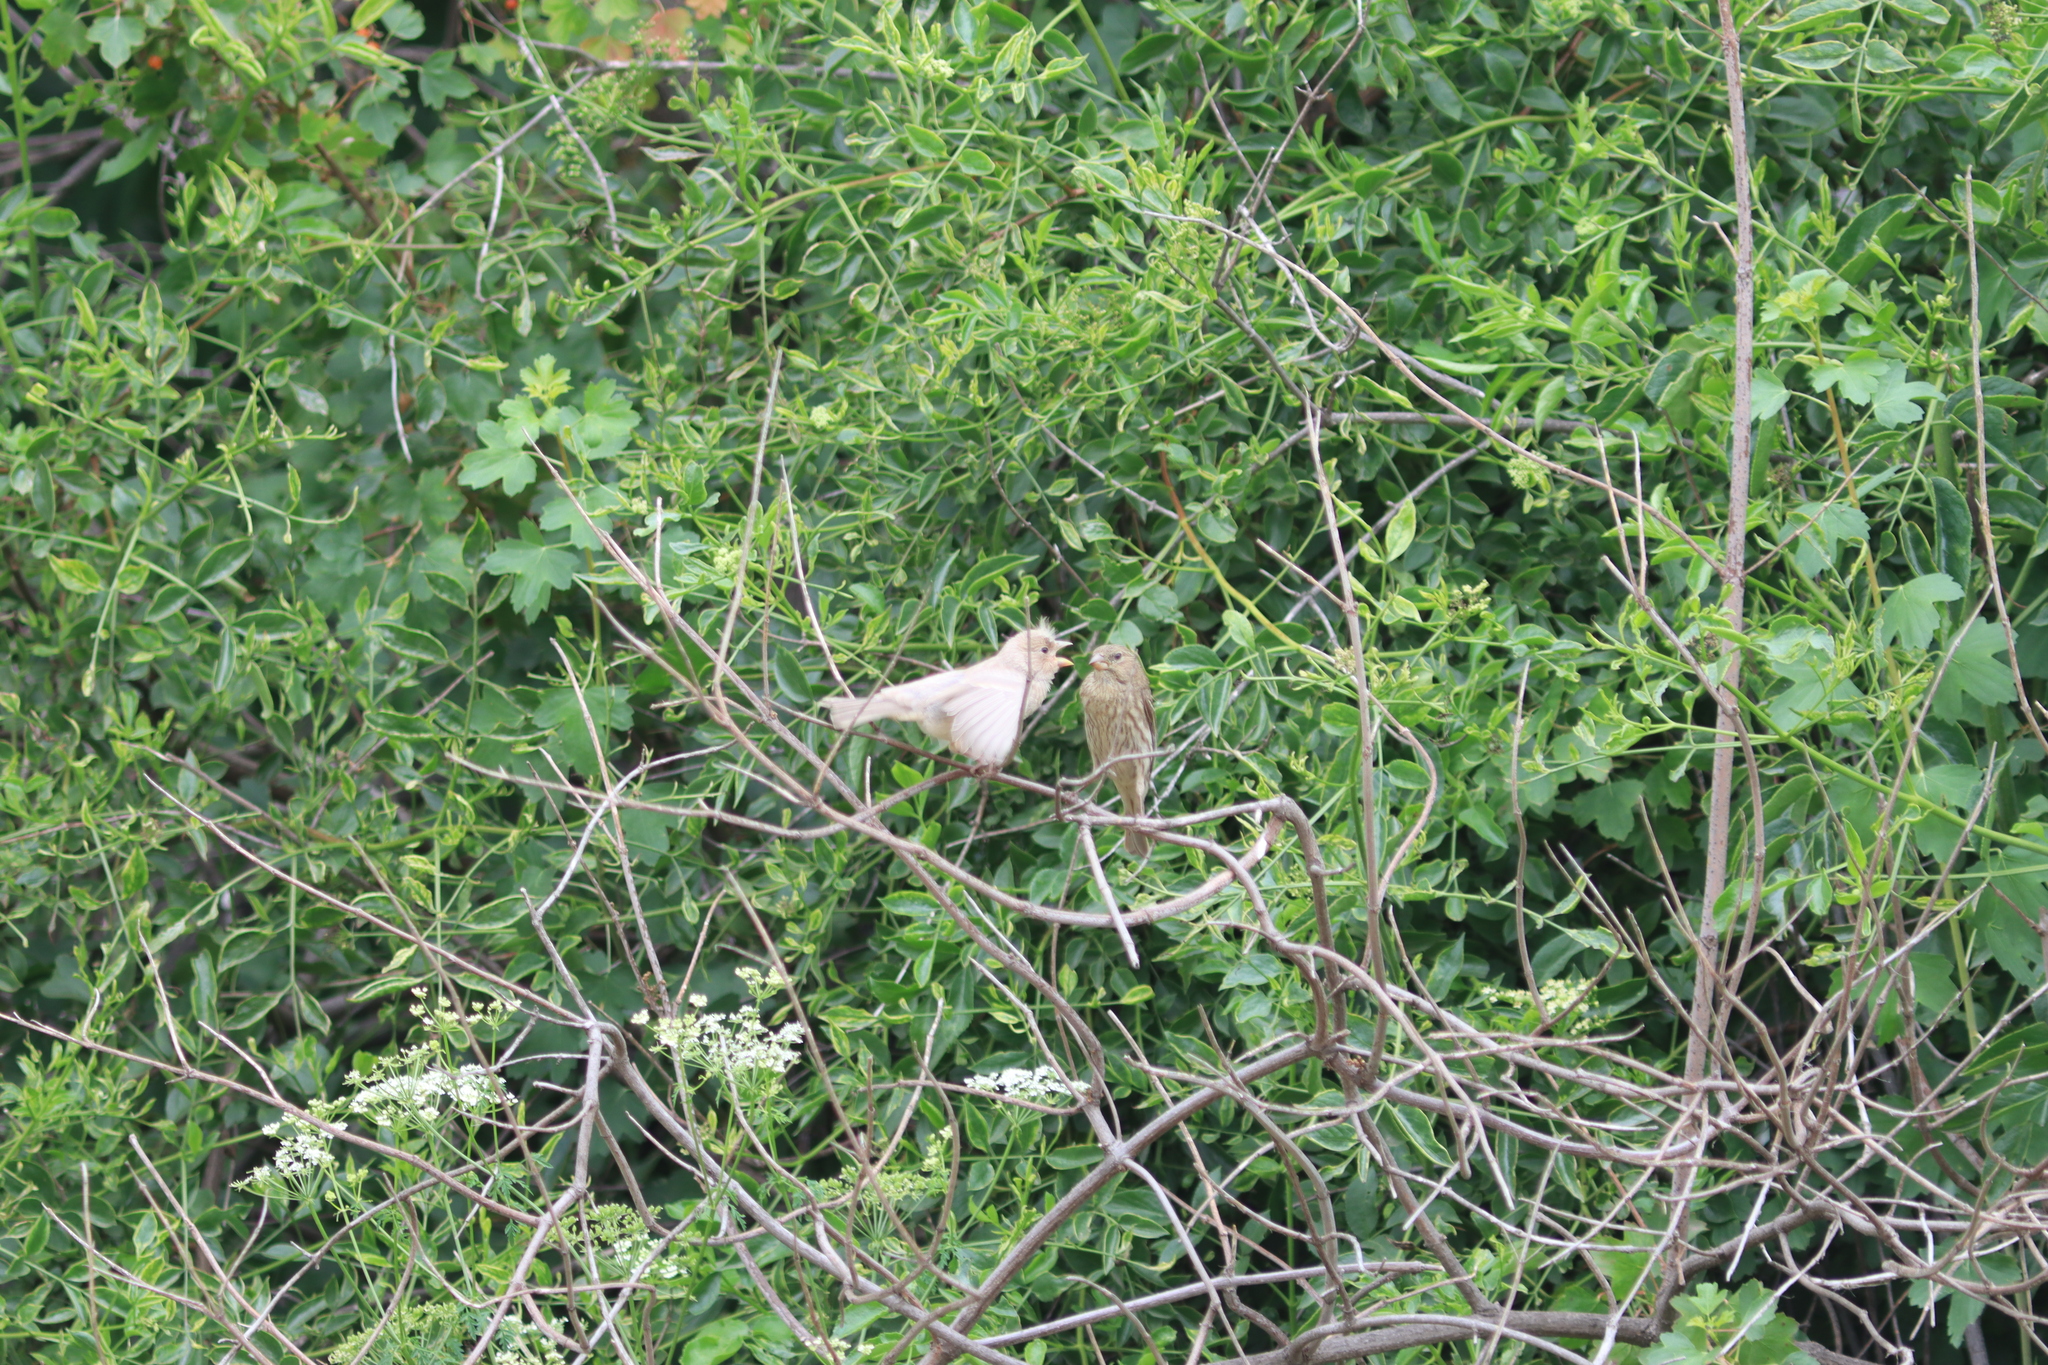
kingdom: Animalia
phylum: Chordata
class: Aves
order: Passeriformes
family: Fringillidae
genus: Haemorhous
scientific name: Haemorhous mexicanus
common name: House finch
